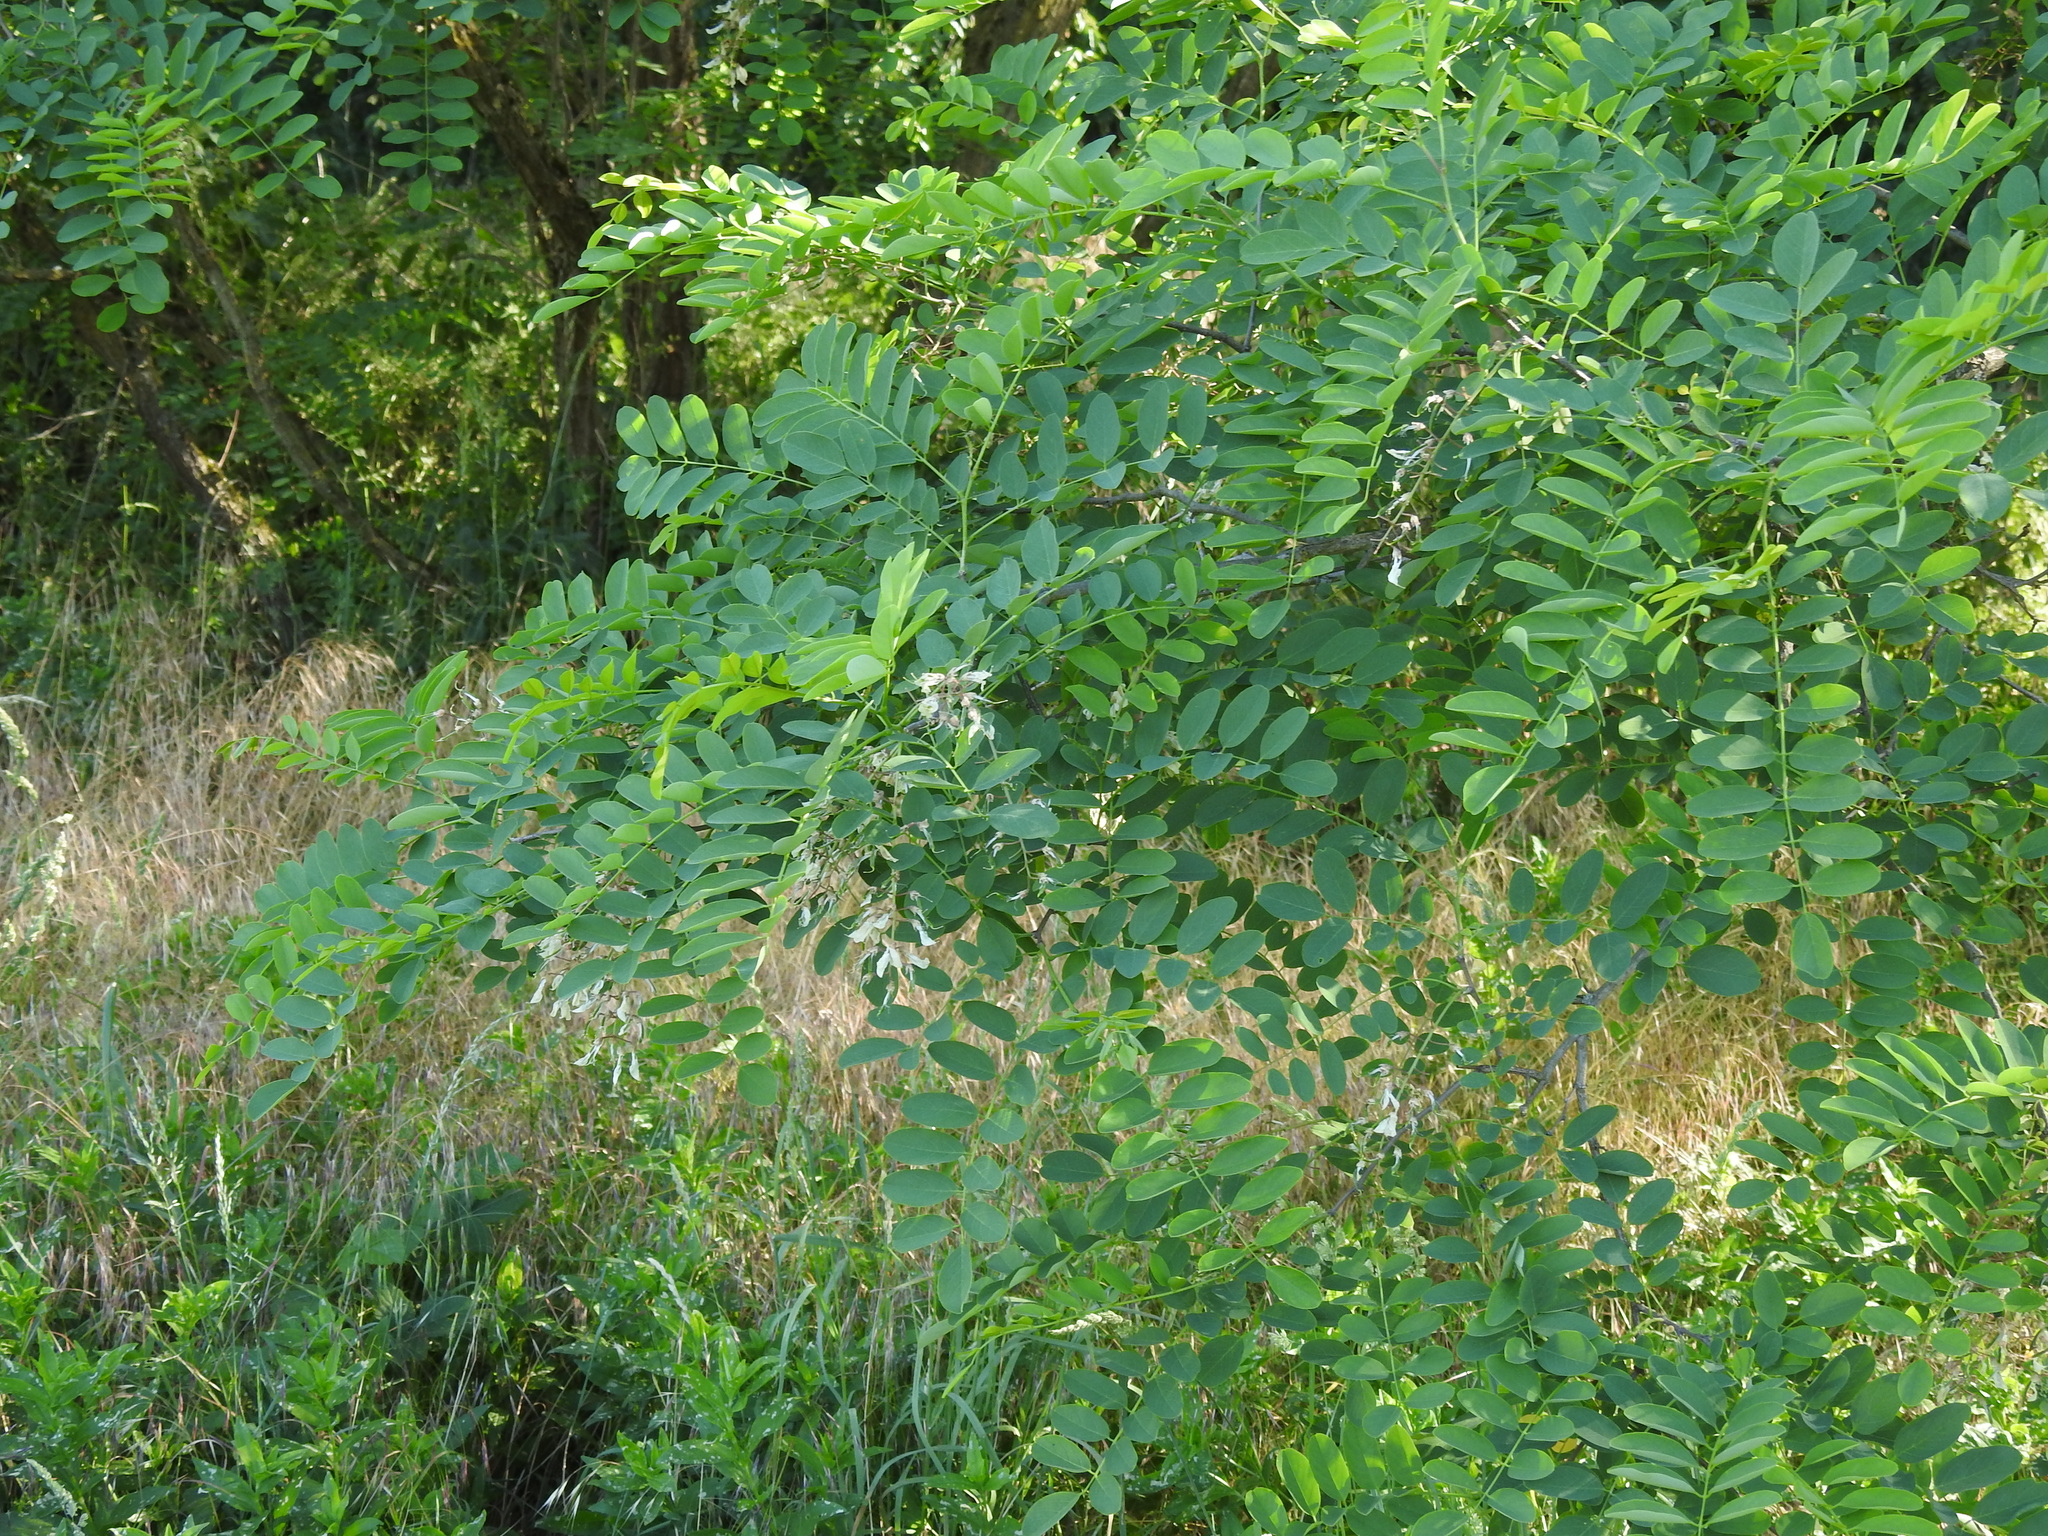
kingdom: Plantae
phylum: Tracheophyta
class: Magnoliopsida
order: Fabales
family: Fabaceae
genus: Robinia
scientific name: Robinia pseudoacacia
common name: Black locust
